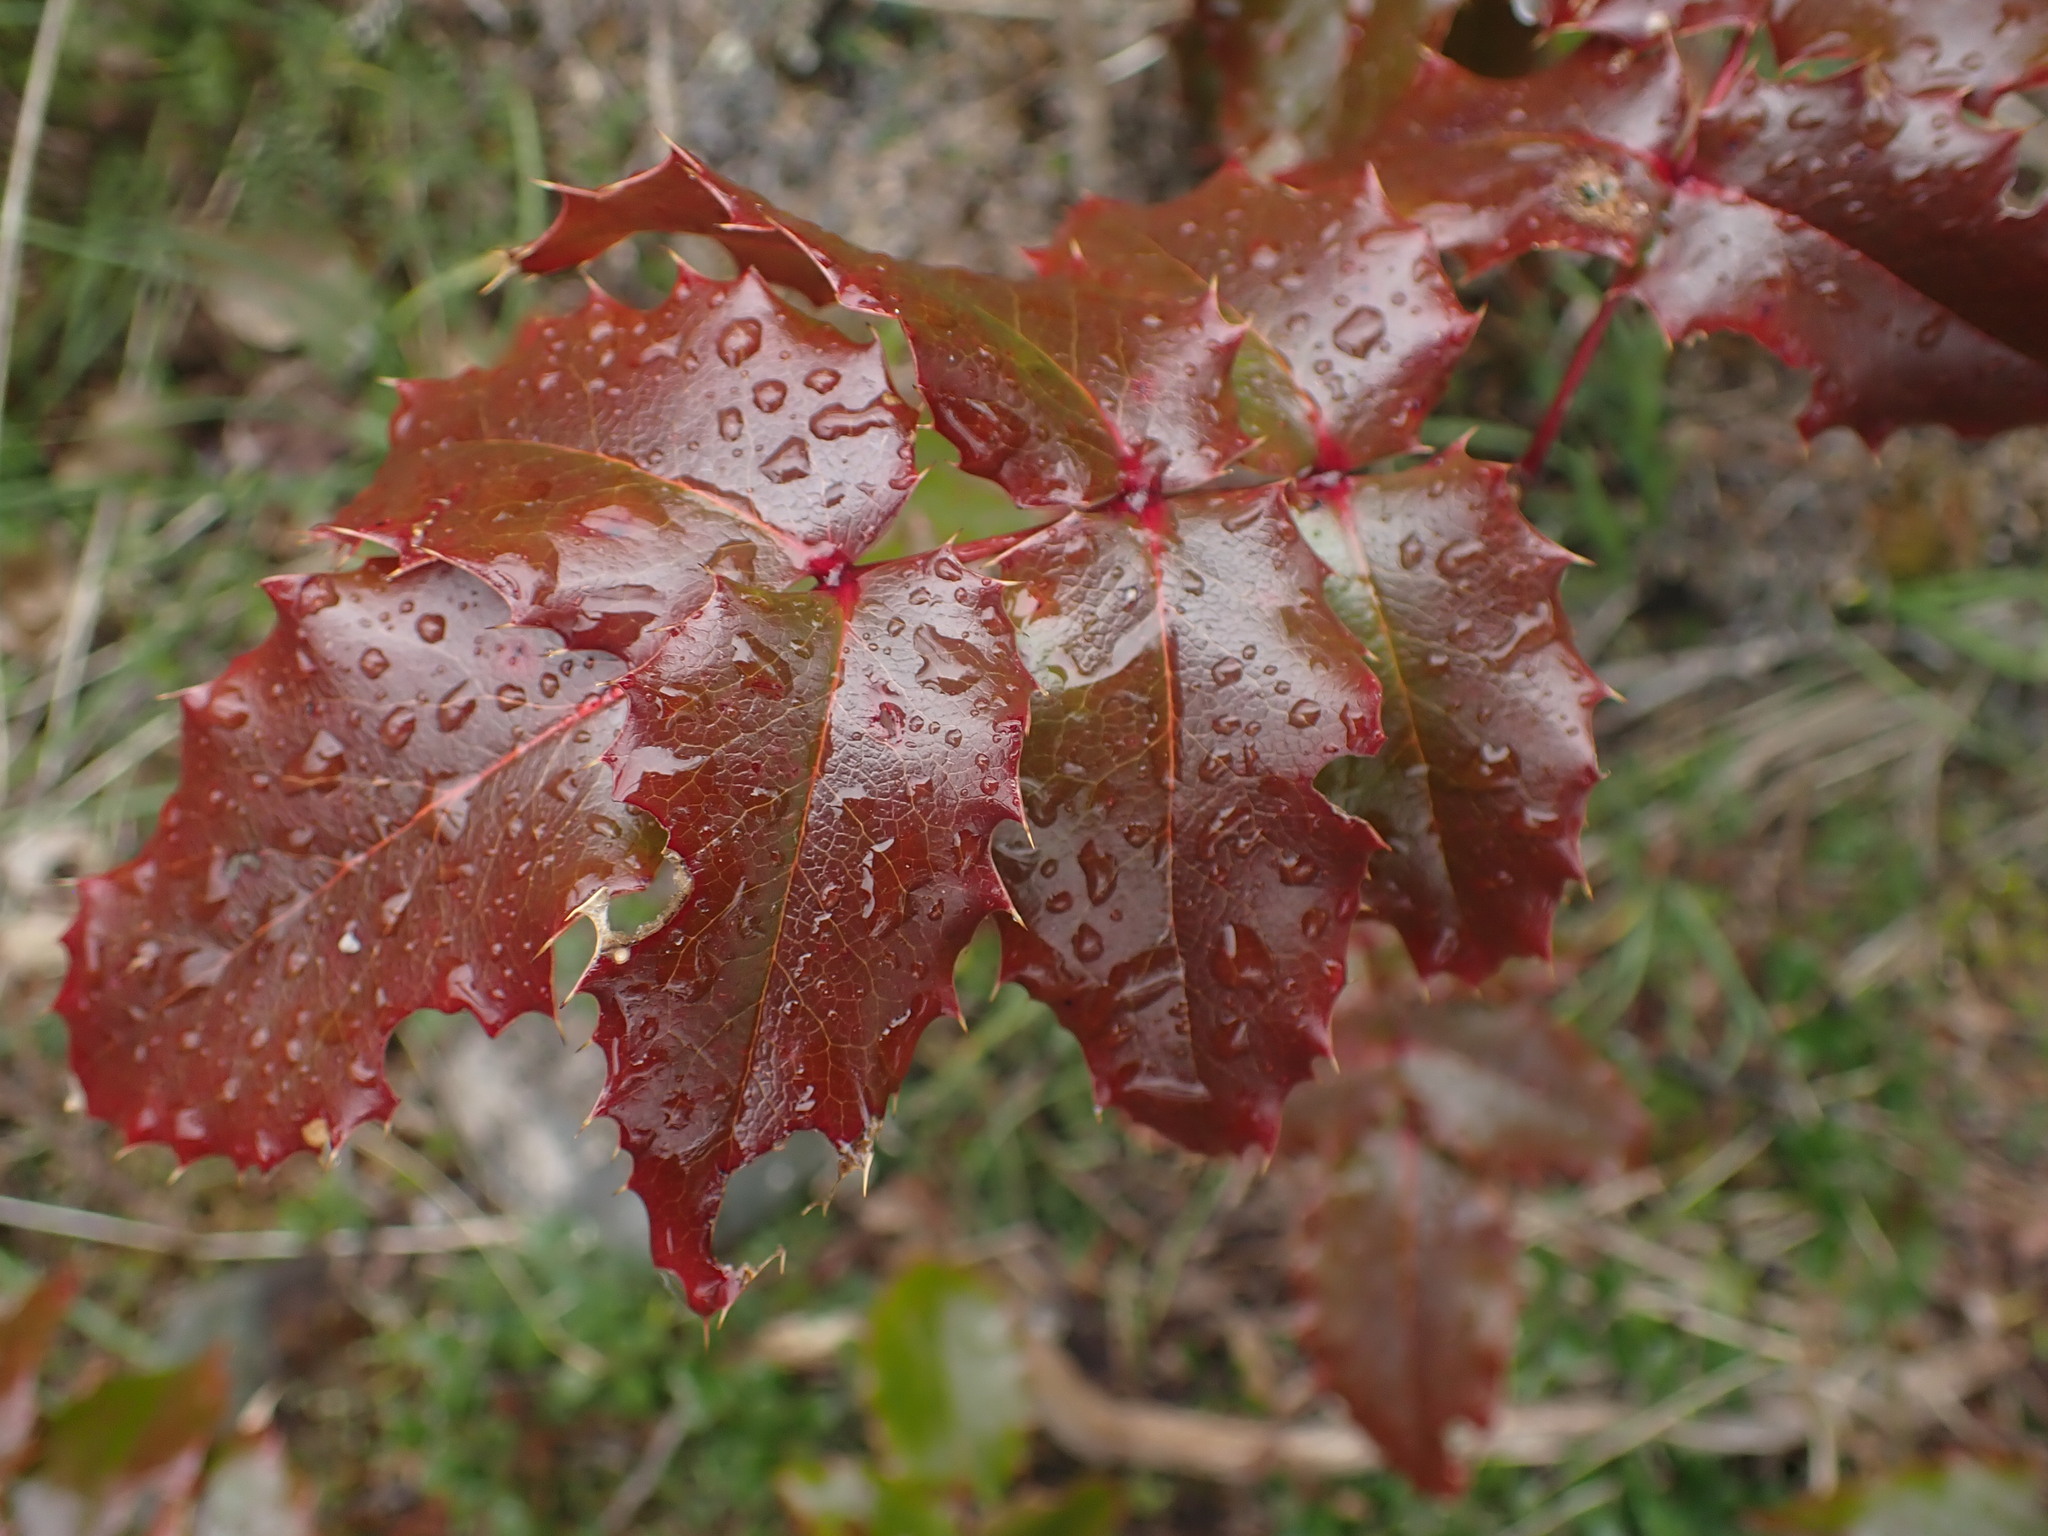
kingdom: Plantae
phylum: Tracheophyta
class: Magnoliopsida
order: Ranunculales
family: Berberidaceae
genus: Mahonia
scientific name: Mahonia aquifolium
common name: Oregon-grape
